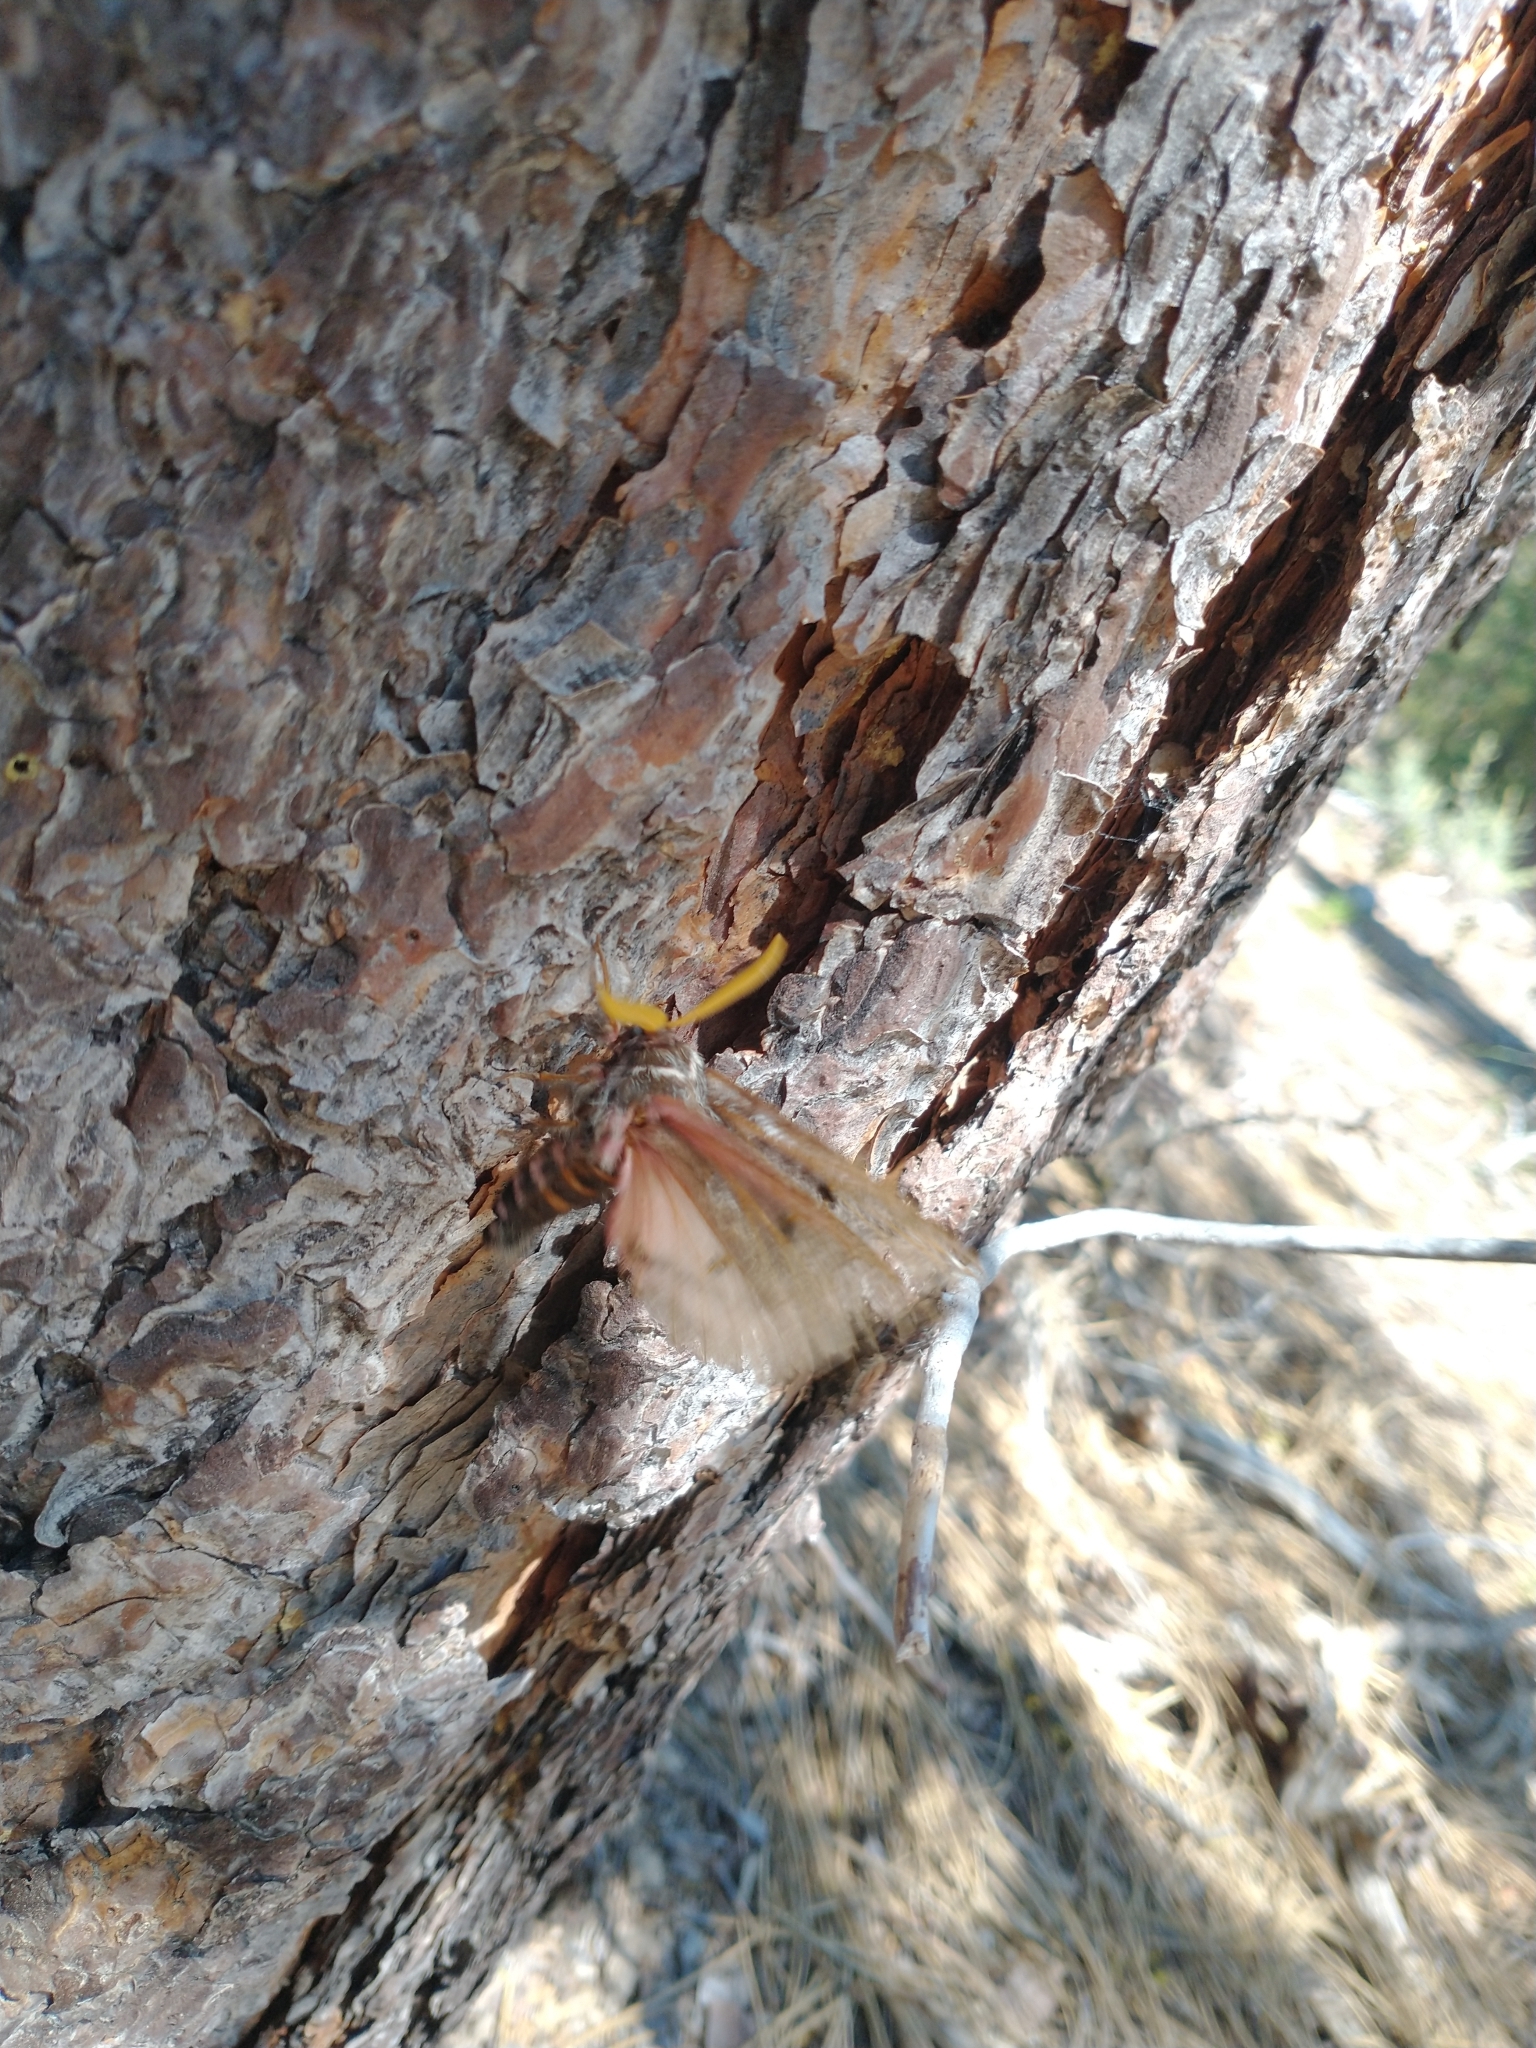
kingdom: Animalia
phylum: Arthropoda
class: Insecta
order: Lepidoptera
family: Saturniidae
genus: Coloradia
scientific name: Coloradia pandora
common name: Pandora pinemoth
